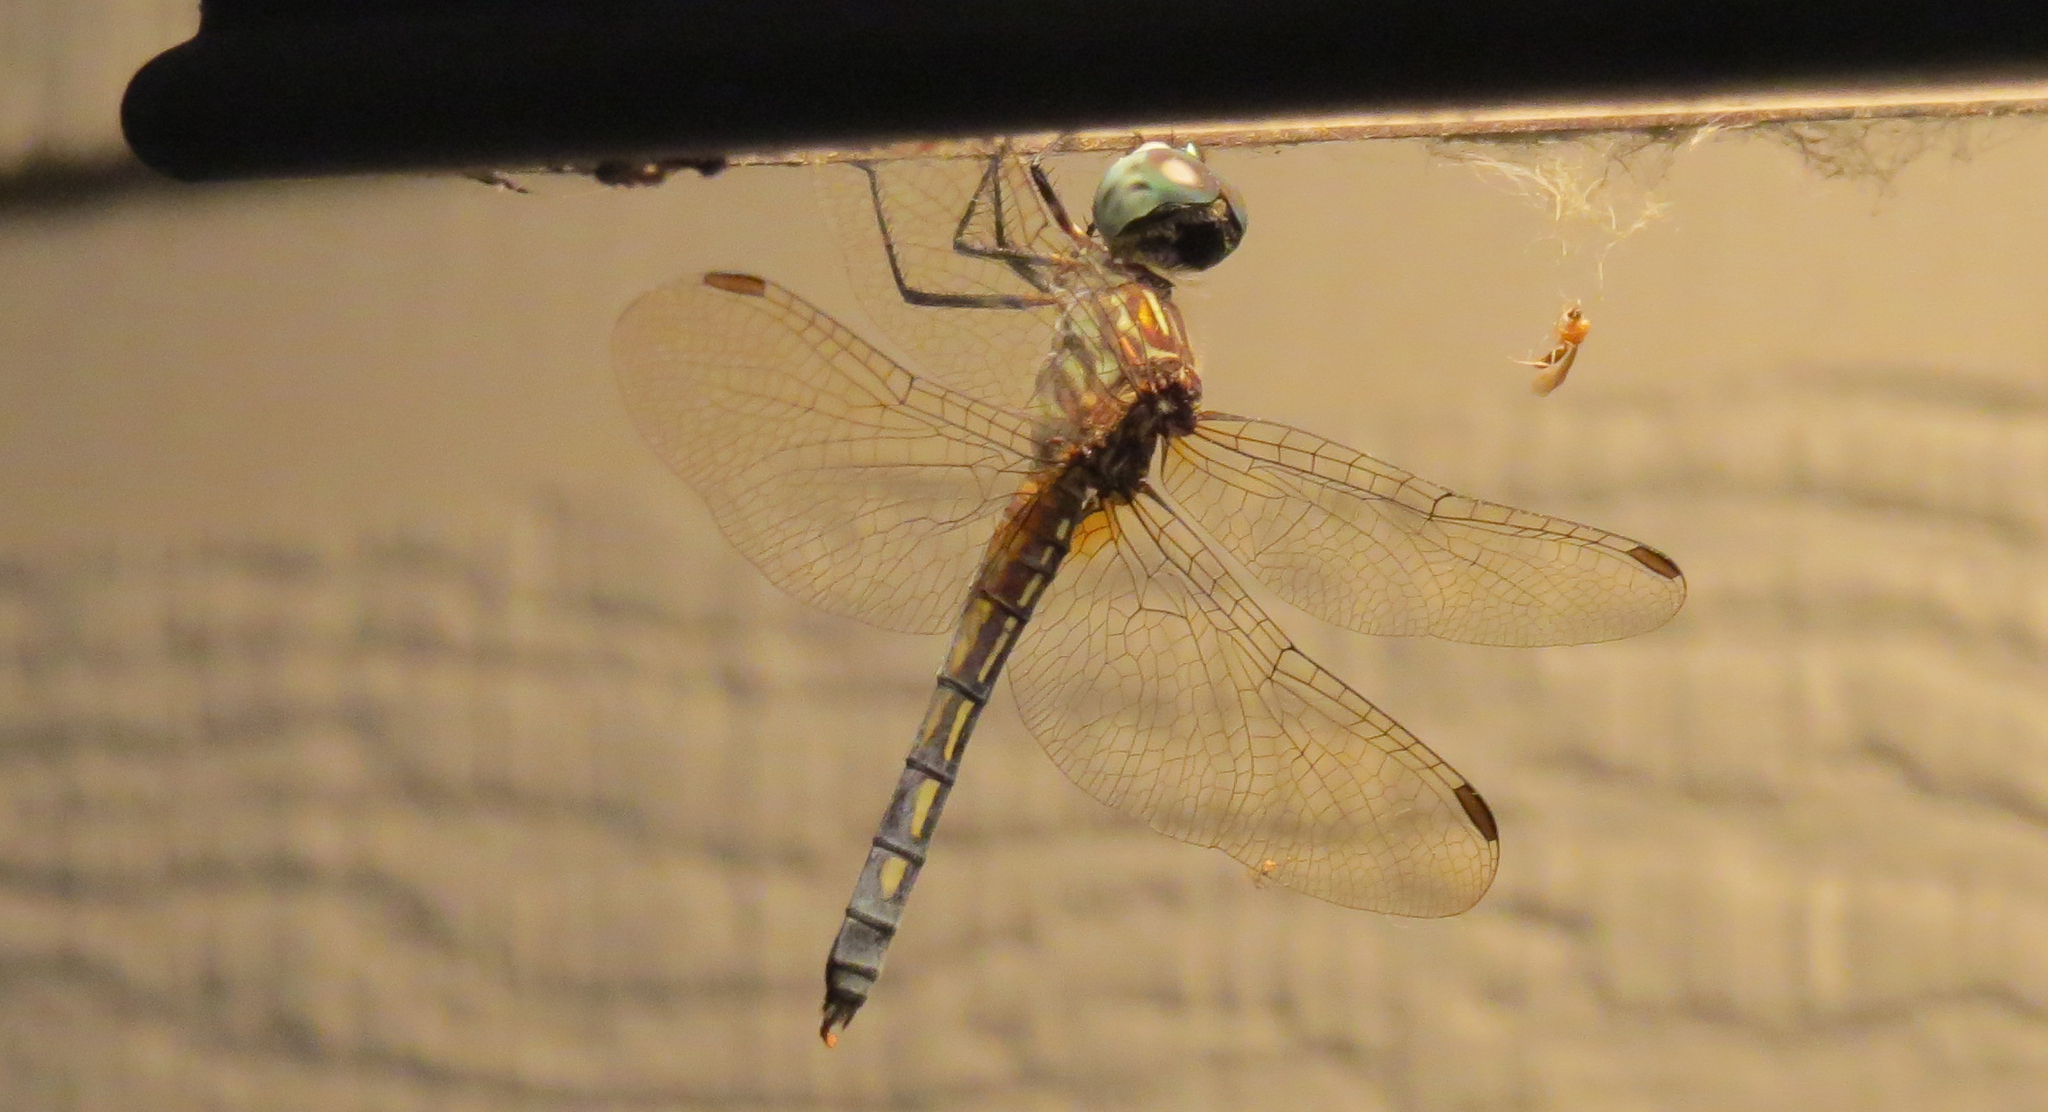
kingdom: Animalia
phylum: Arthropoda
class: Insecta
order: Odonata
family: Libellulidae
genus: Pachydiplax
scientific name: Pachydiplax longipennis
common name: Blue dasher
